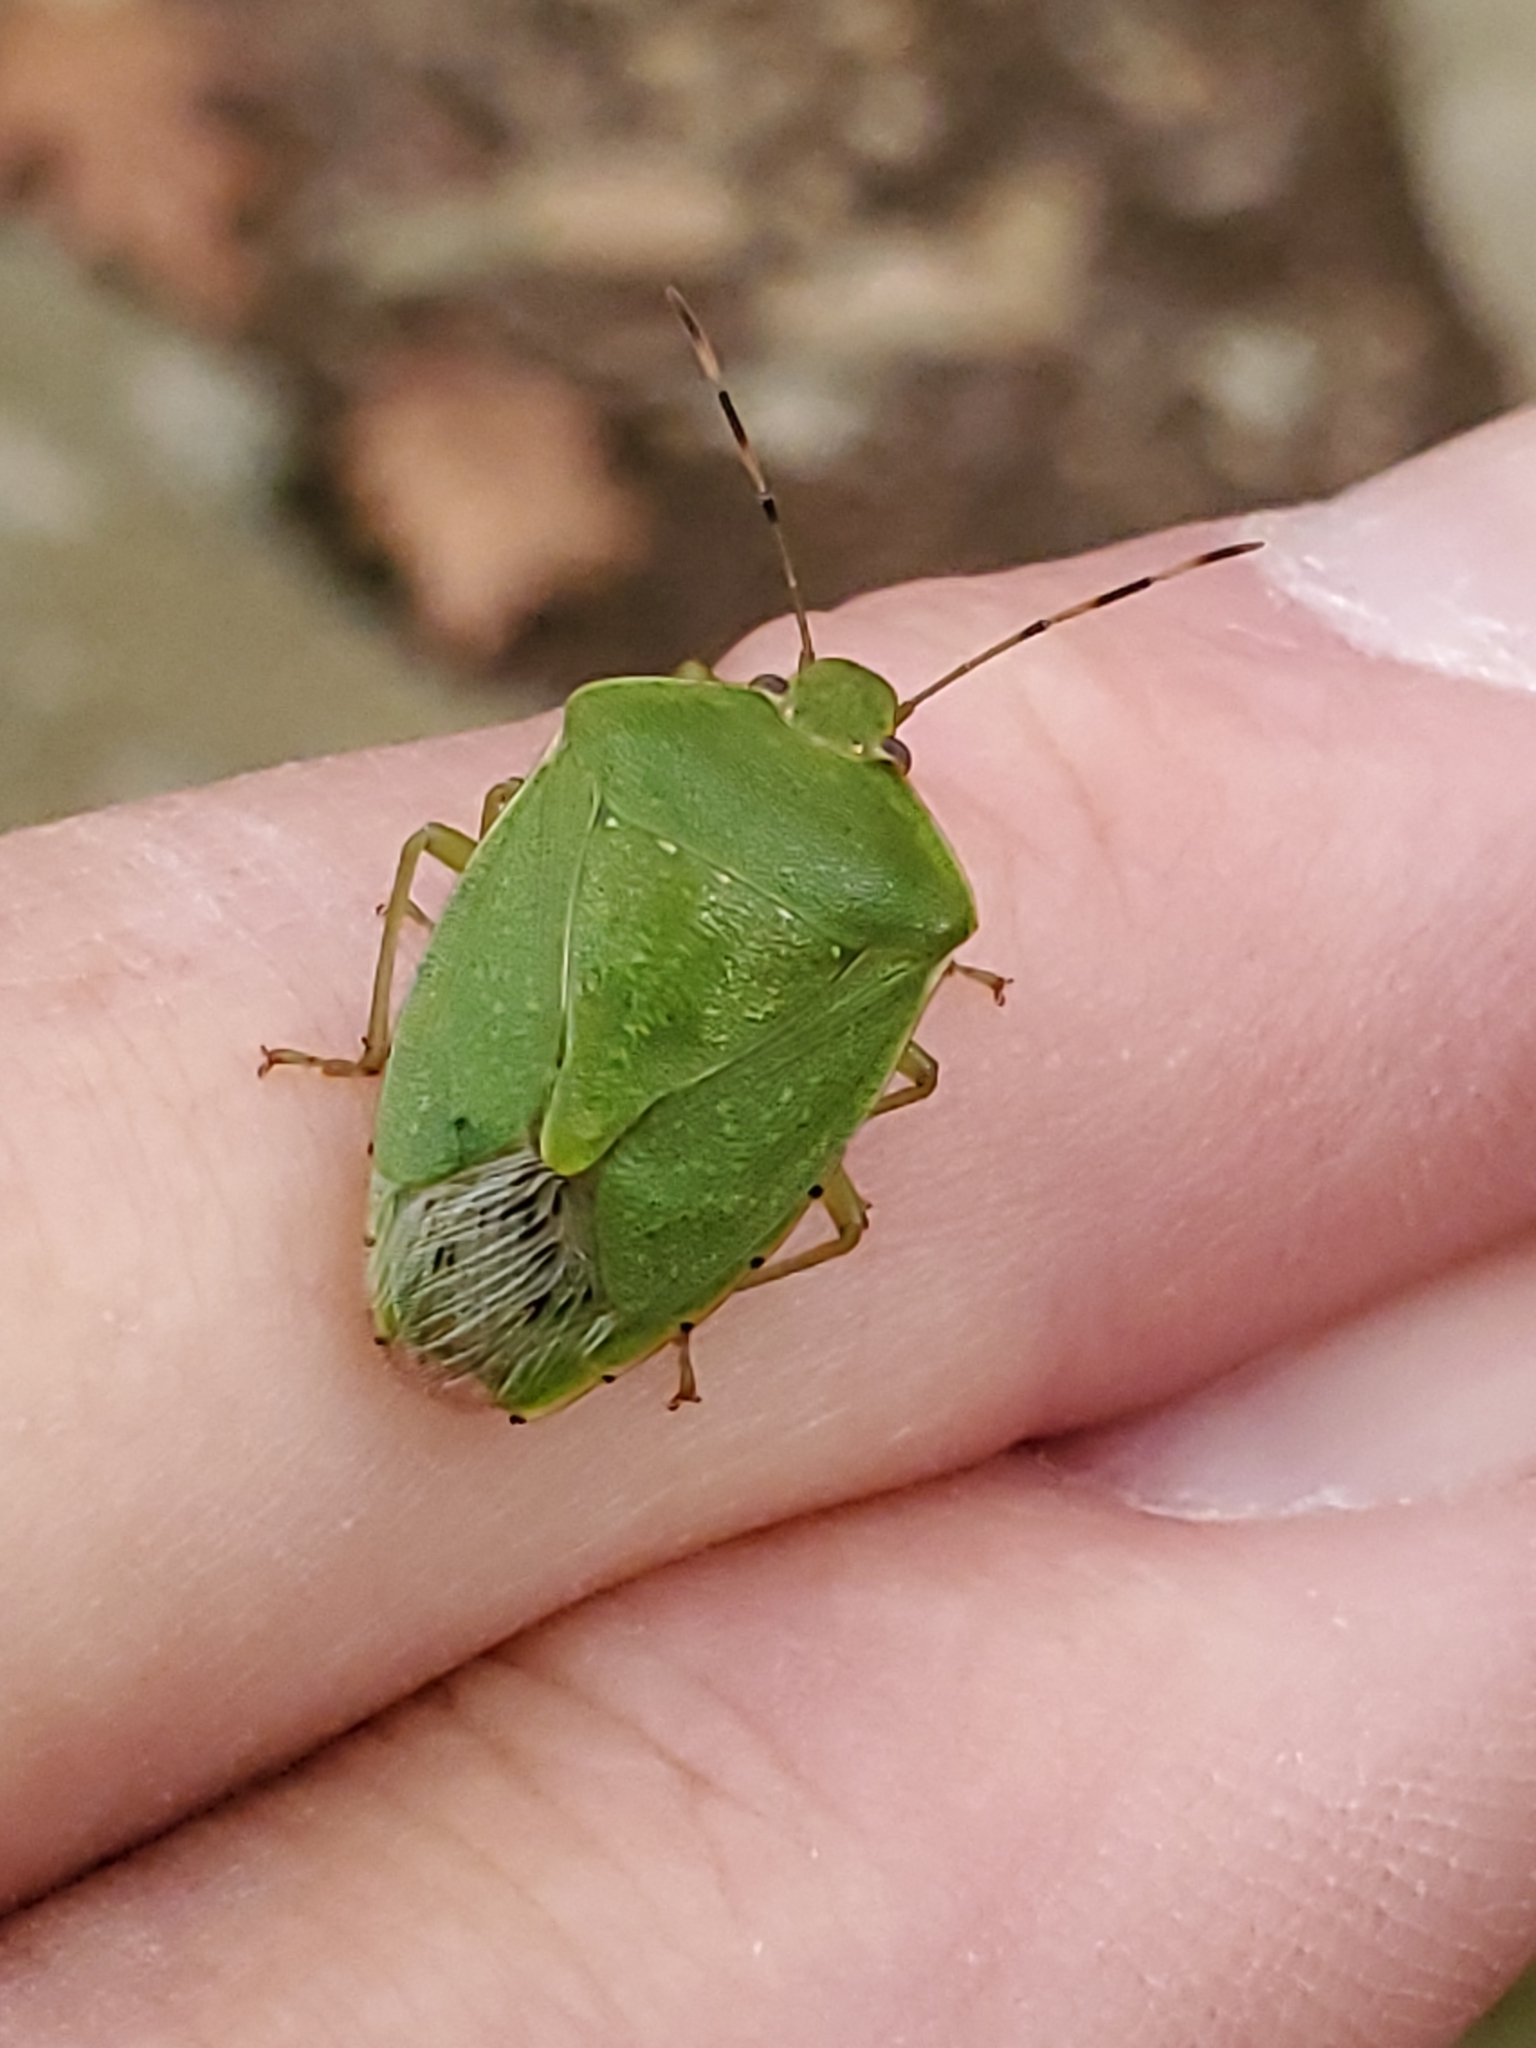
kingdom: Animalia
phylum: Arthropoda
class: Insecta
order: Hemiptera
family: Pentatomidae
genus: Chinavia
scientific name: Chinavia hilaris
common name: Green stink bug
